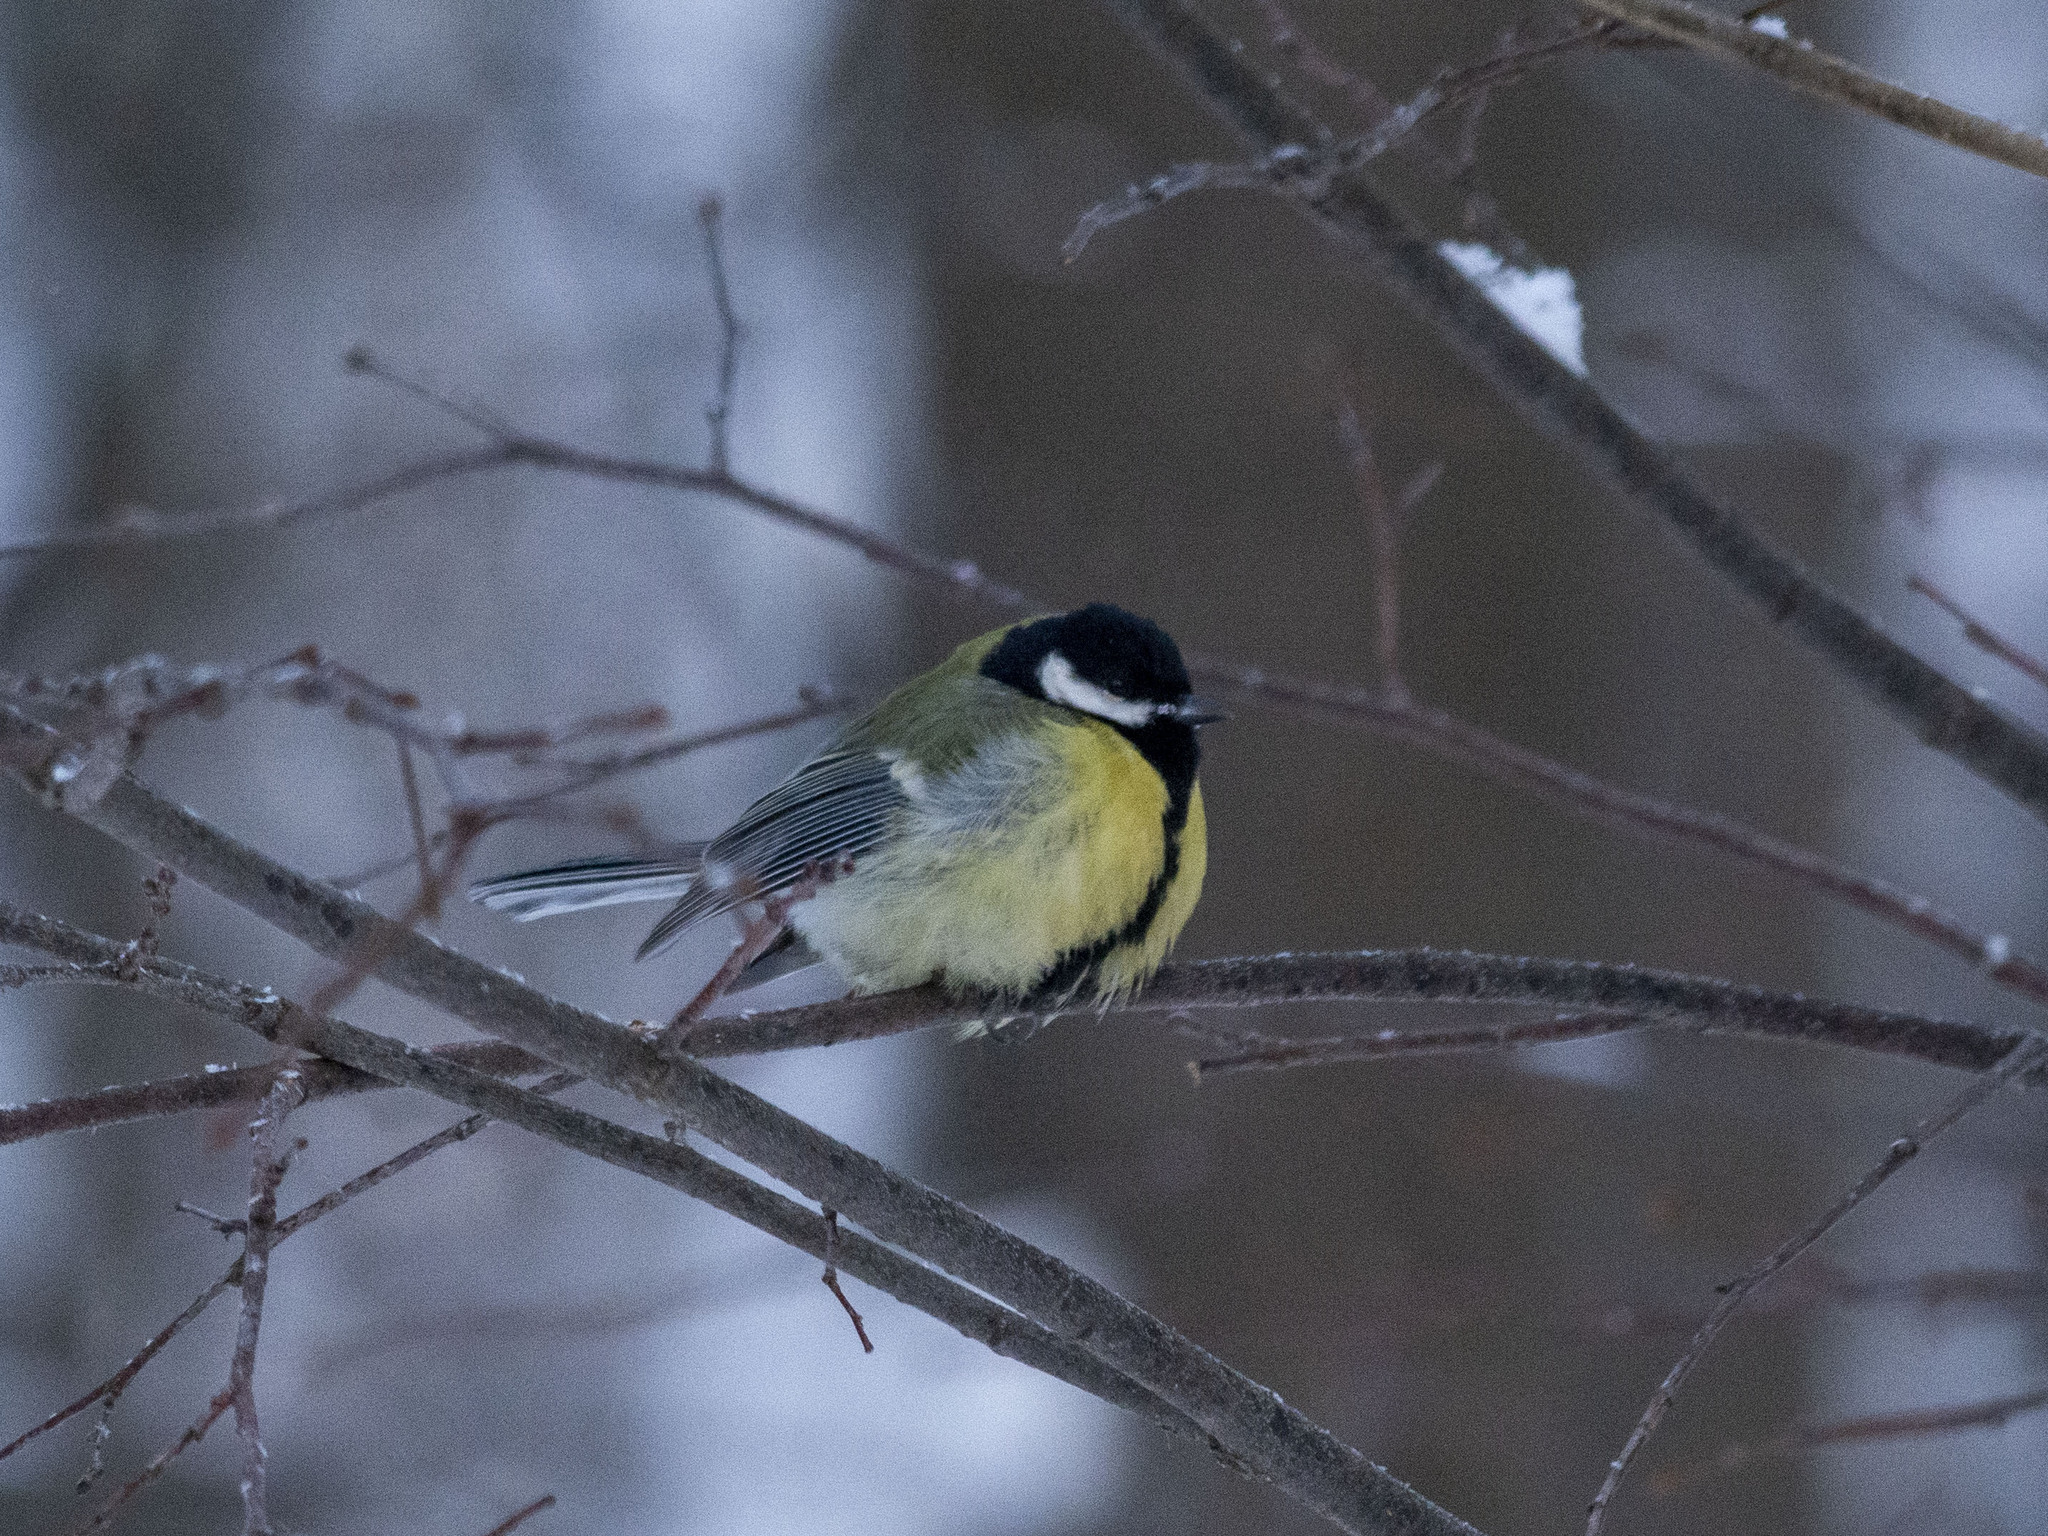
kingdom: Animalia
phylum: Chordata
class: Aves
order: Passeriformes
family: Paridae
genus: Parus
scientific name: Parus major
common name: Great tit
